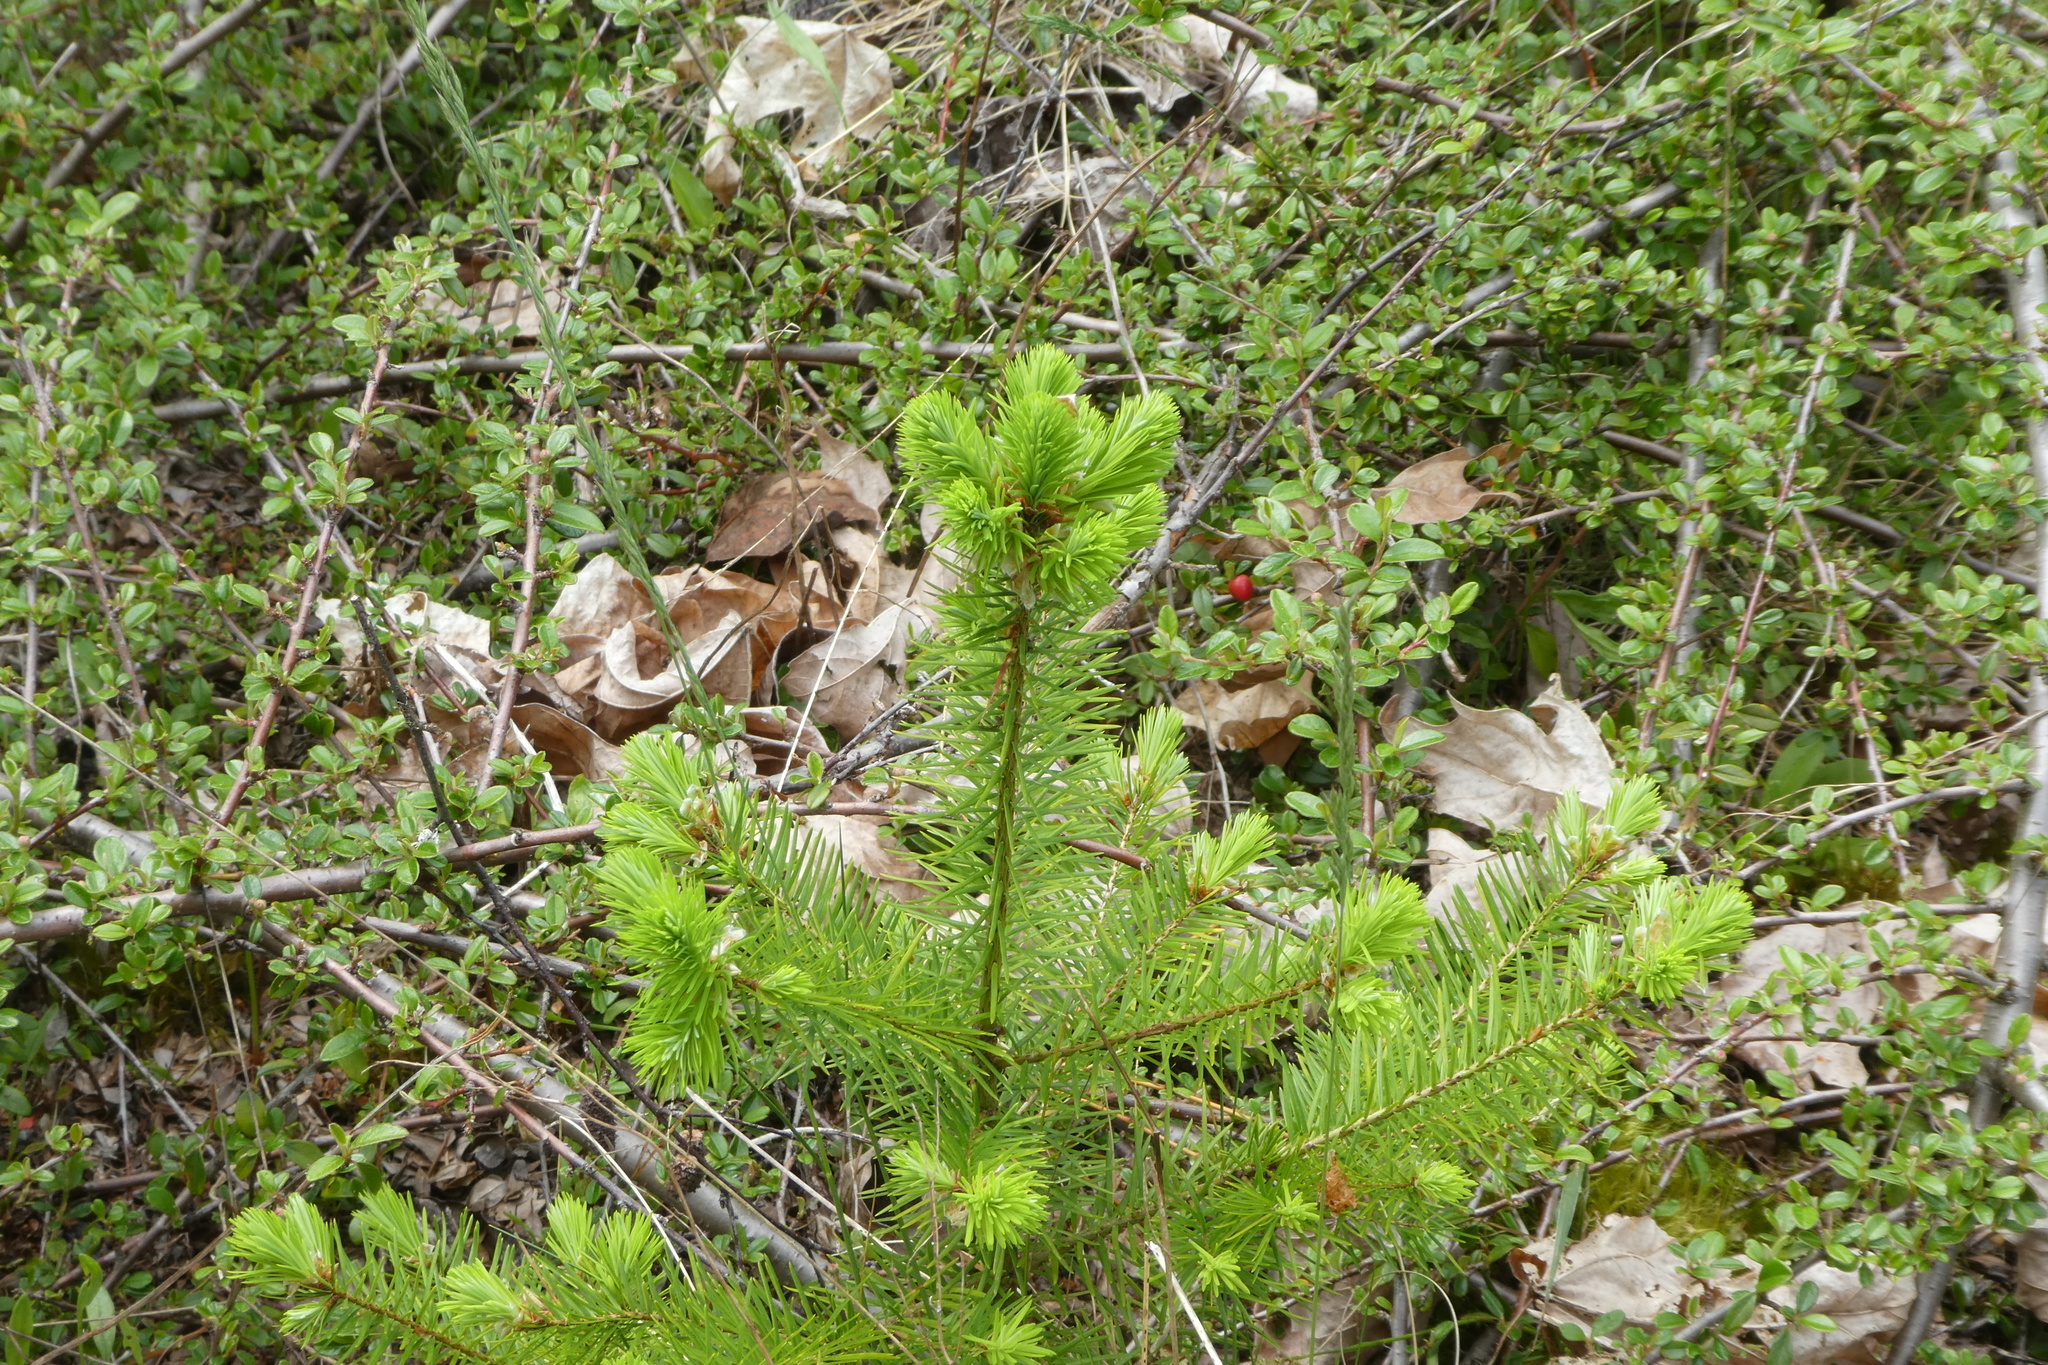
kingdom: Plantae
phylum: Tracheophyta
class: Pinopsida
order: Pinales
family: Pinaceae
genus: Pseudotsuga
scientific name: Pseudotsuga menziesii
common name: Douglas fir
